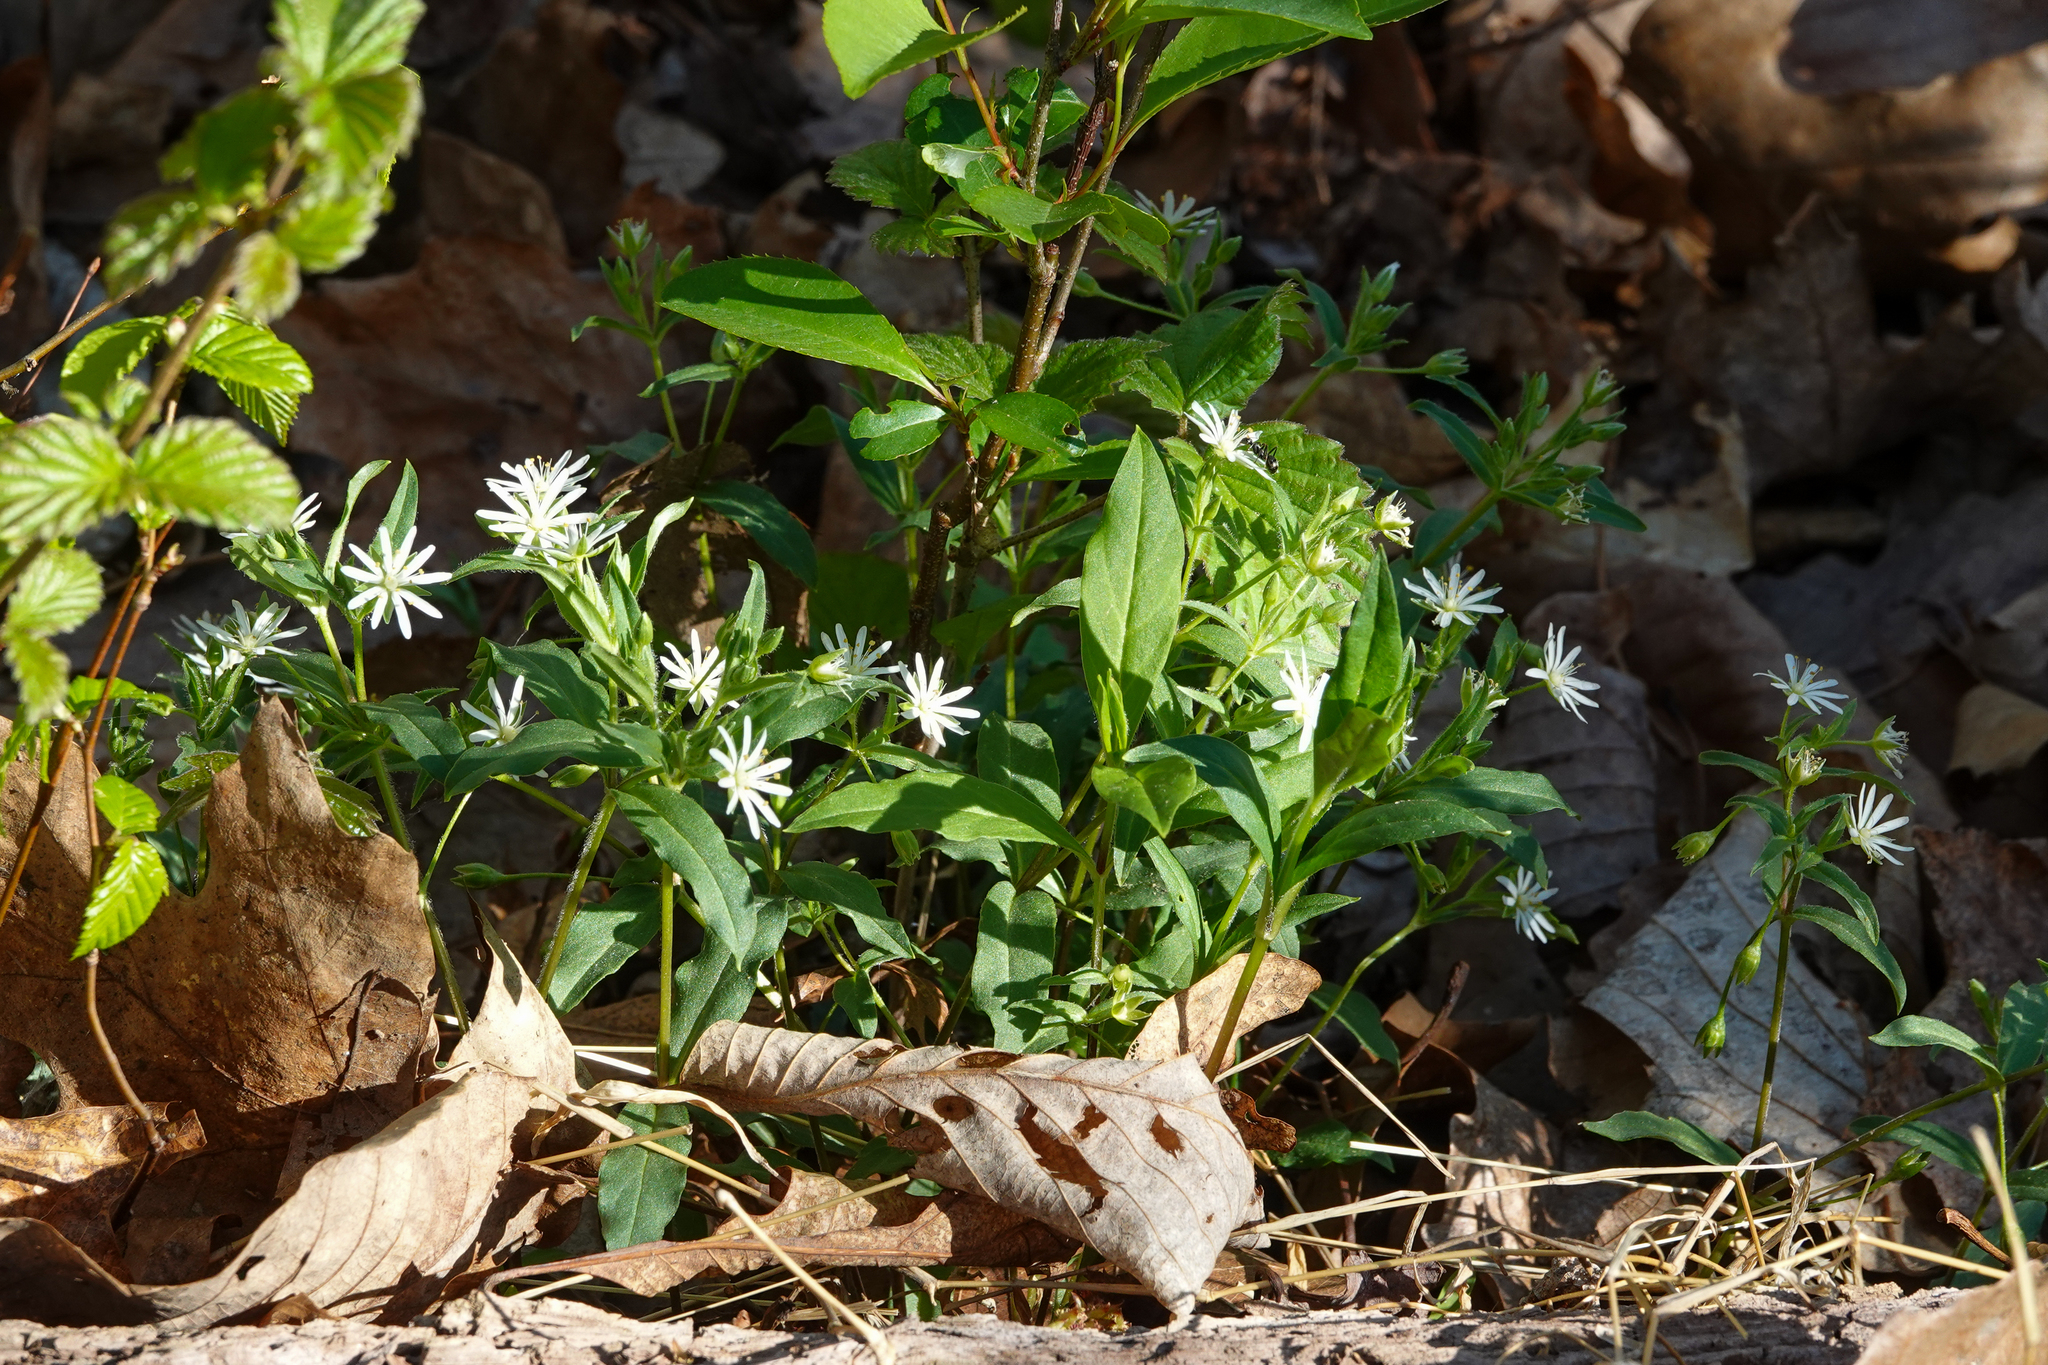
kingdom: Plantae
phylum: Tracheophyta
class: Magnoliopsida
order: Caryophyllales
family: Caryophyllaceae
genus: Stellaria
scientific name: Stellaria pubera
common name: Star chickweed
